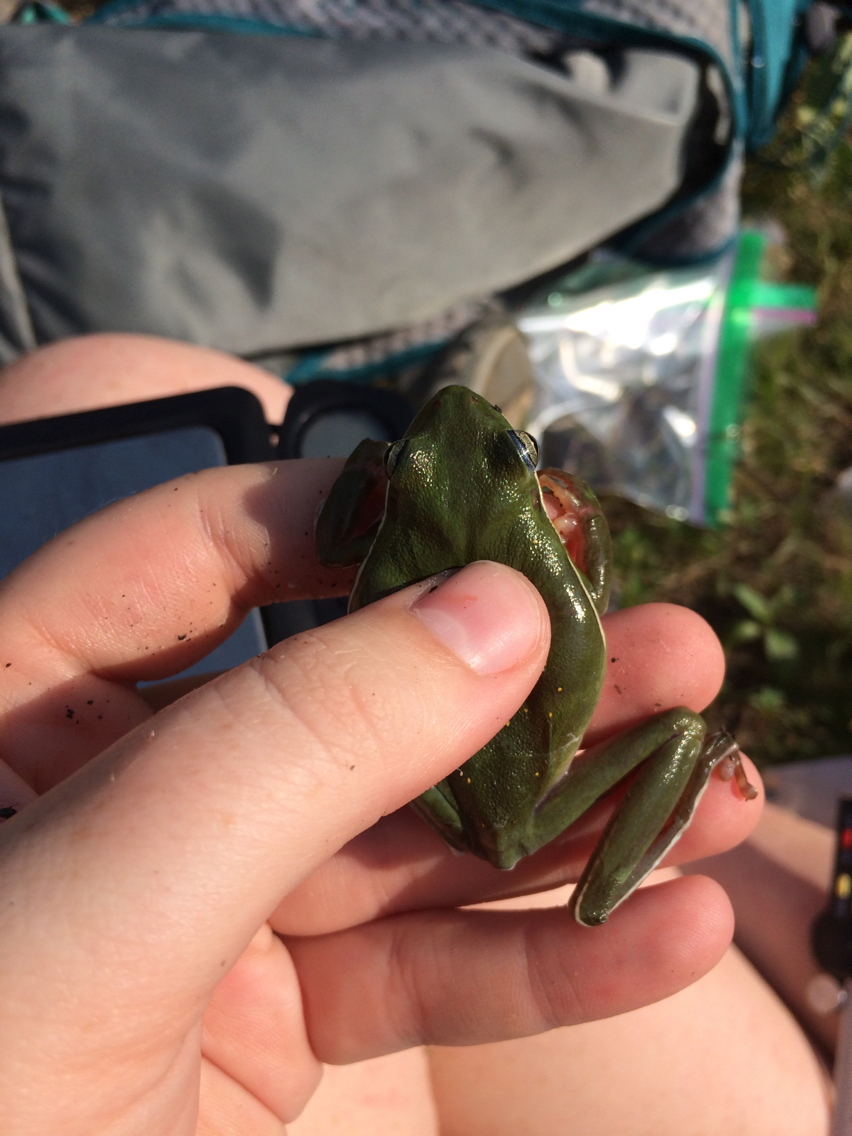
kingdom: Animalia
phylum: Chordata
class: Amphibia
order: Anura
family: Hylidae
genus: Dryophytes
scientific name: Dryophytes cinereus
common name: Green treefrog
